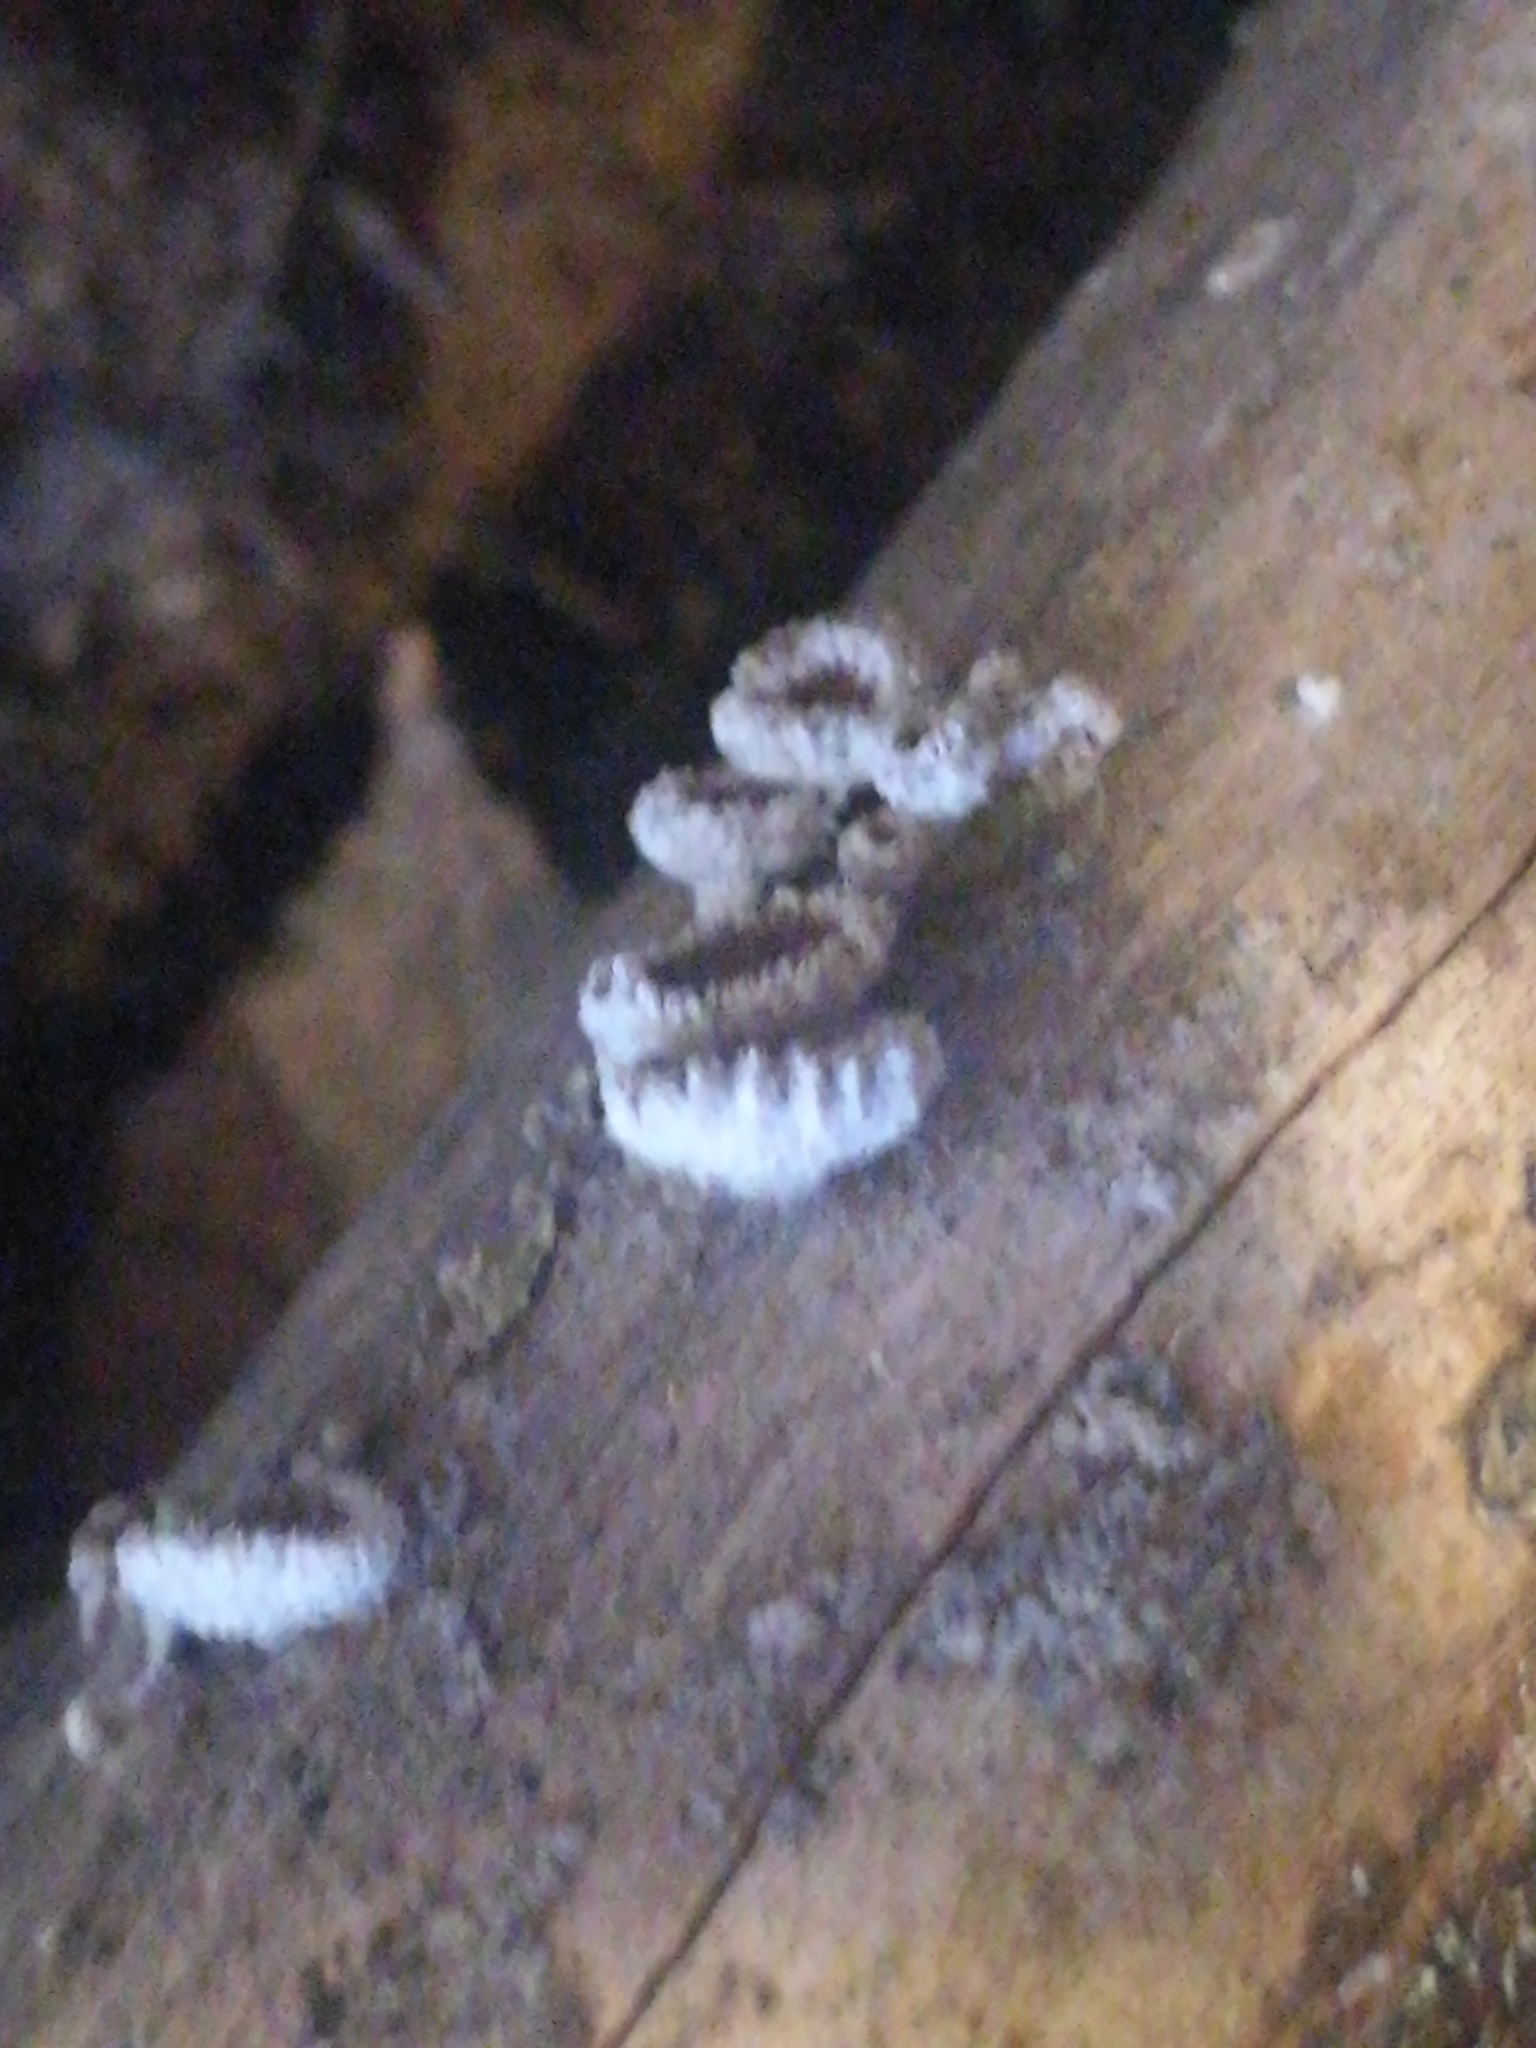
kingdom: Fungi
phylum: Basidiomycota
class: Agaricomycetes
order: Agaricales
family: Schizophyllaceae
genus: Schizophyllum
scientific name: Schizophyllum commune
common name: Common porecrust
